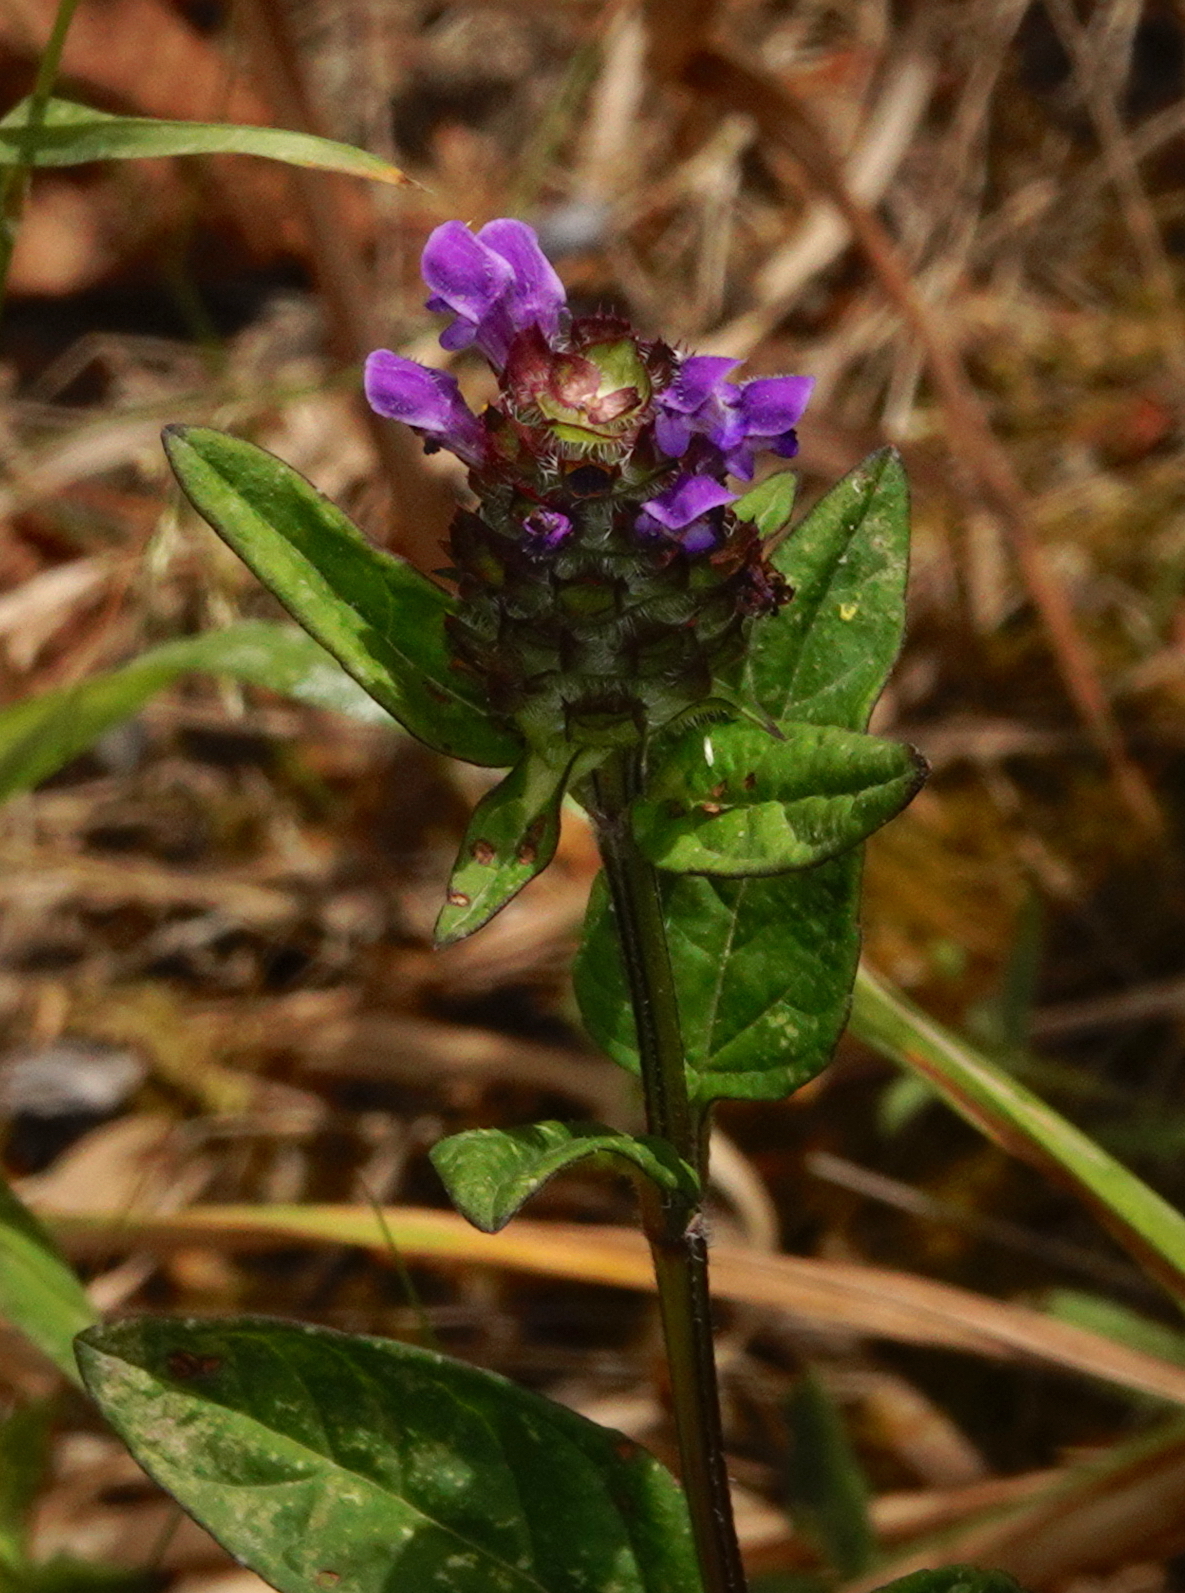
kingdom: Plantae
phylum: Tracheophyta
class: Magnoliopsida
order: Lamiales
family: Lamiaceae
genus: Prunella
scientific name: Prunella vulgaris
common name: Heal-all
